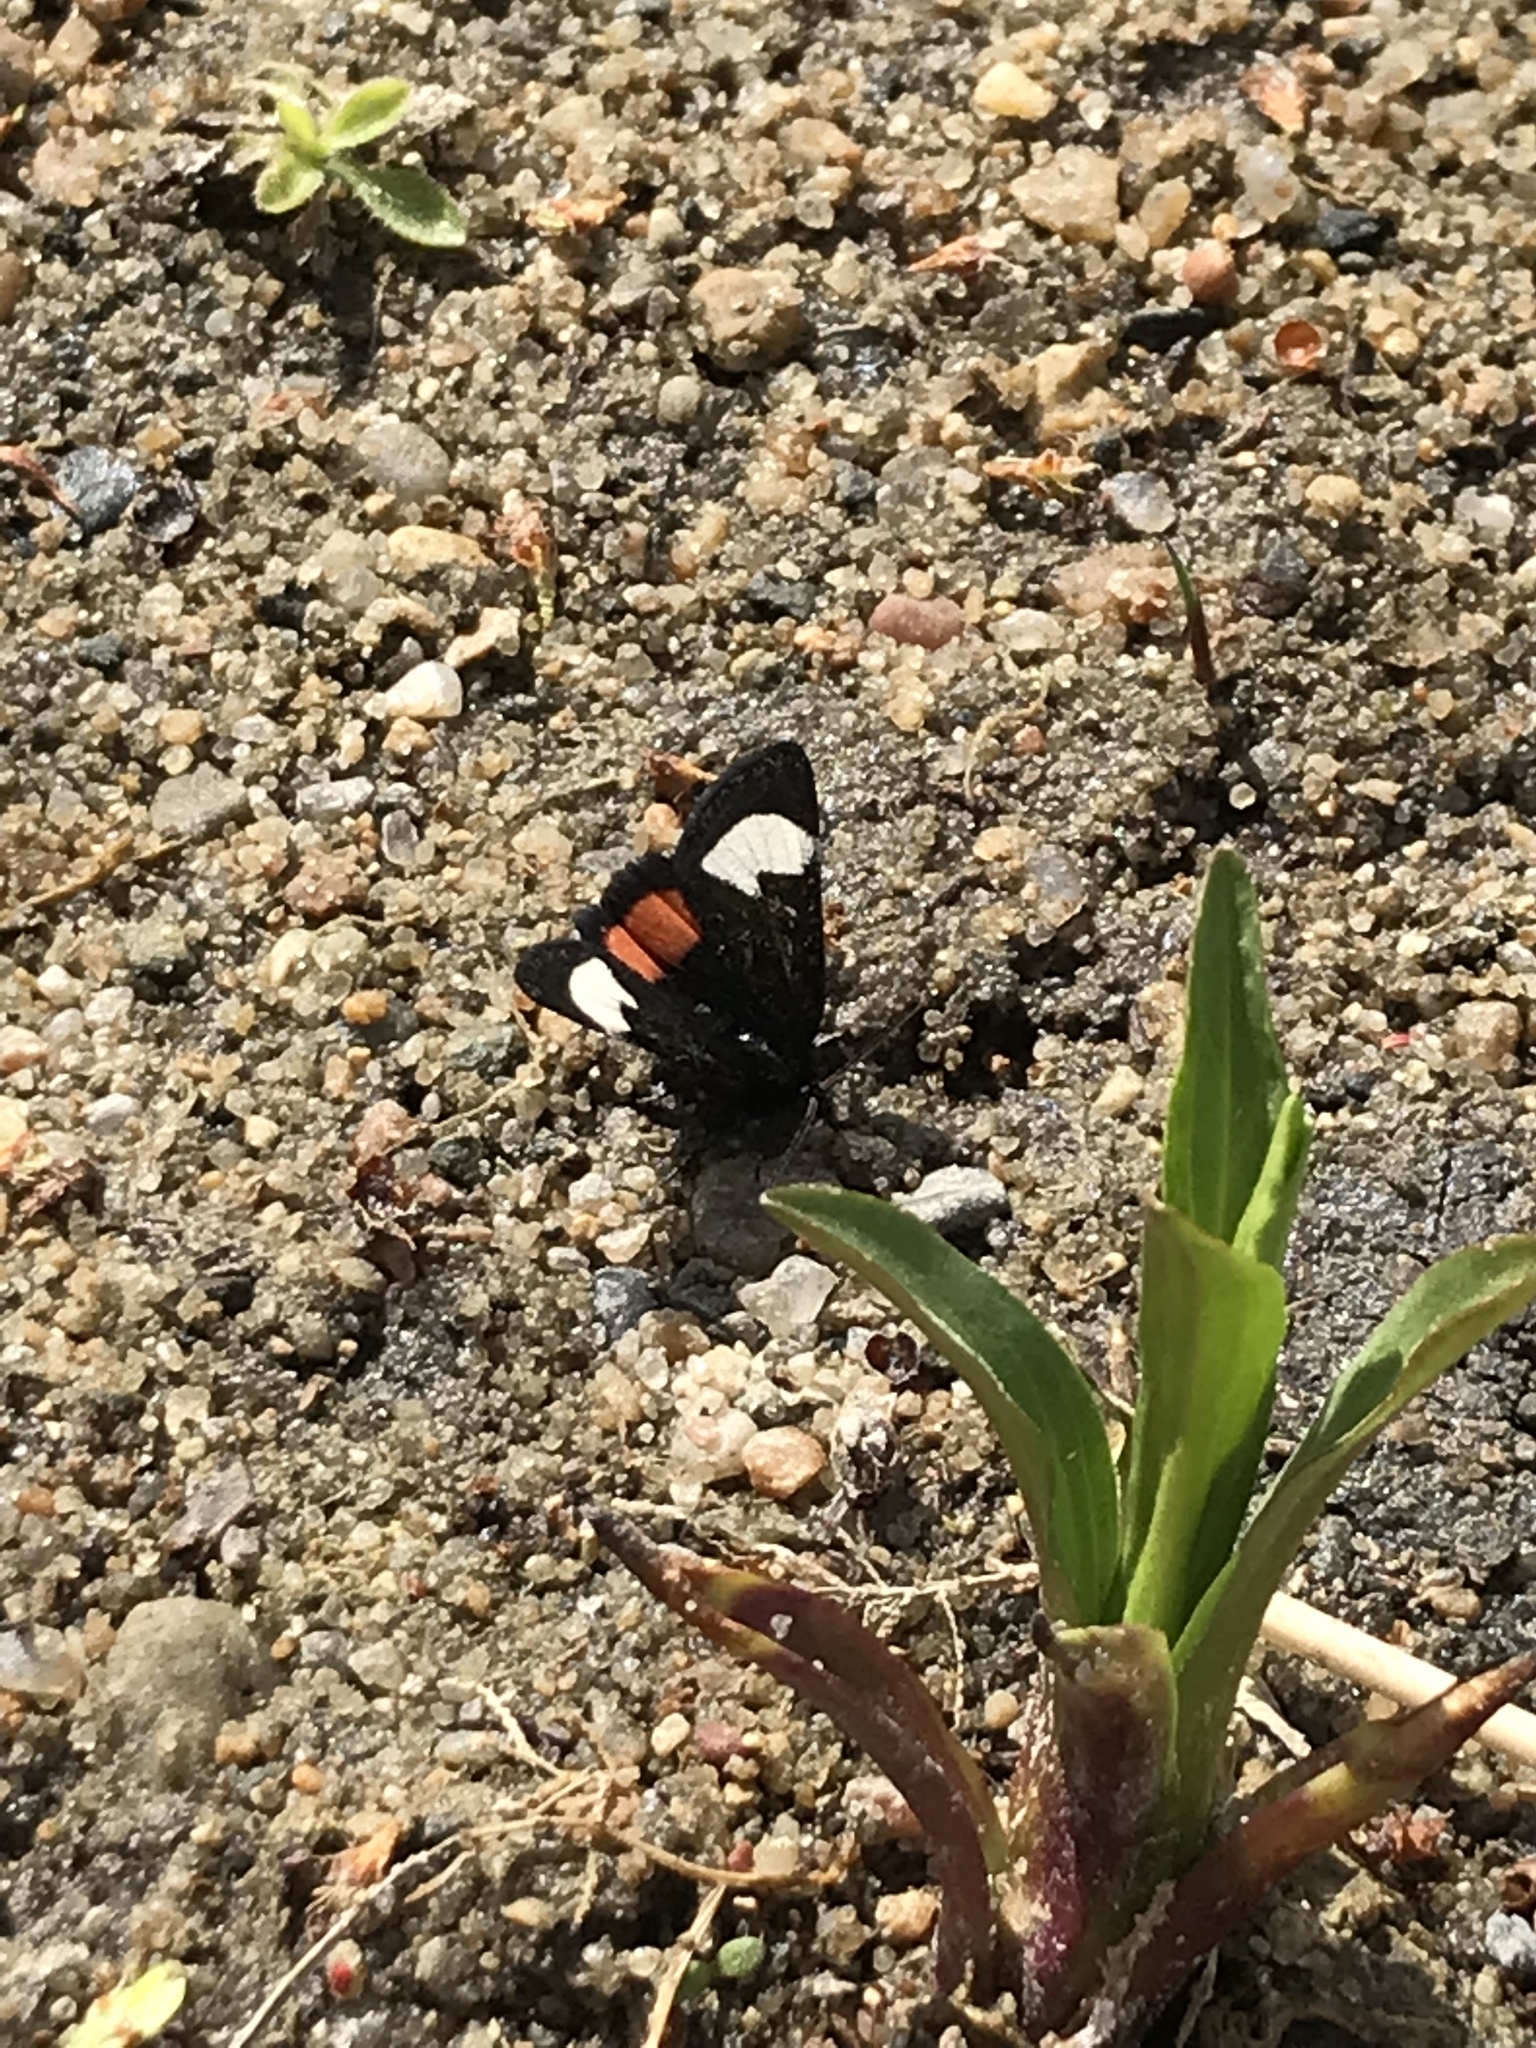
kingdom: Animalia
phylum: Arthropoda
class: Insecta
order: Lepidoptera
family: Noctuidae
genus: Psychomorpha
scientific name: Psychomorpha epimenis
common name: Grapevine epimenis moth
